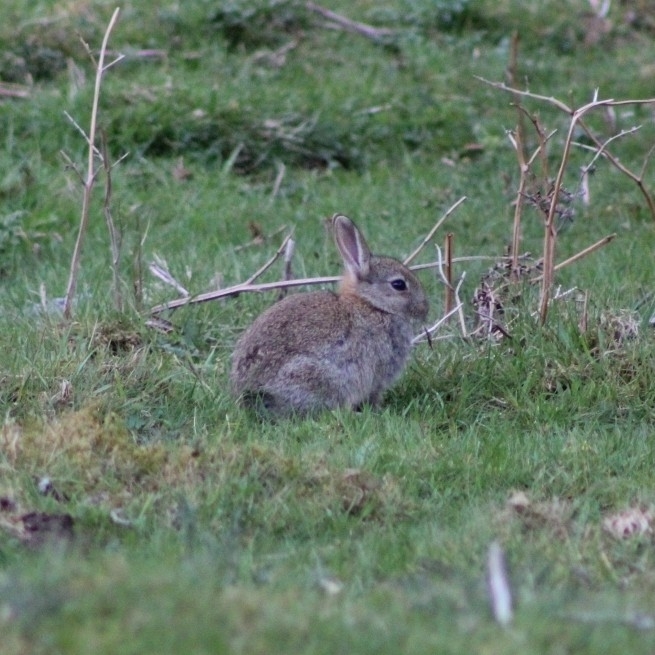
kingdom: Animalia
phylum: Chordata
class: Mammalia
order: Lagomorpha
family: Leporidae
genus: Oryctolagus
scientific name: Oryctolagus cuniculus
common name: European rabbit
